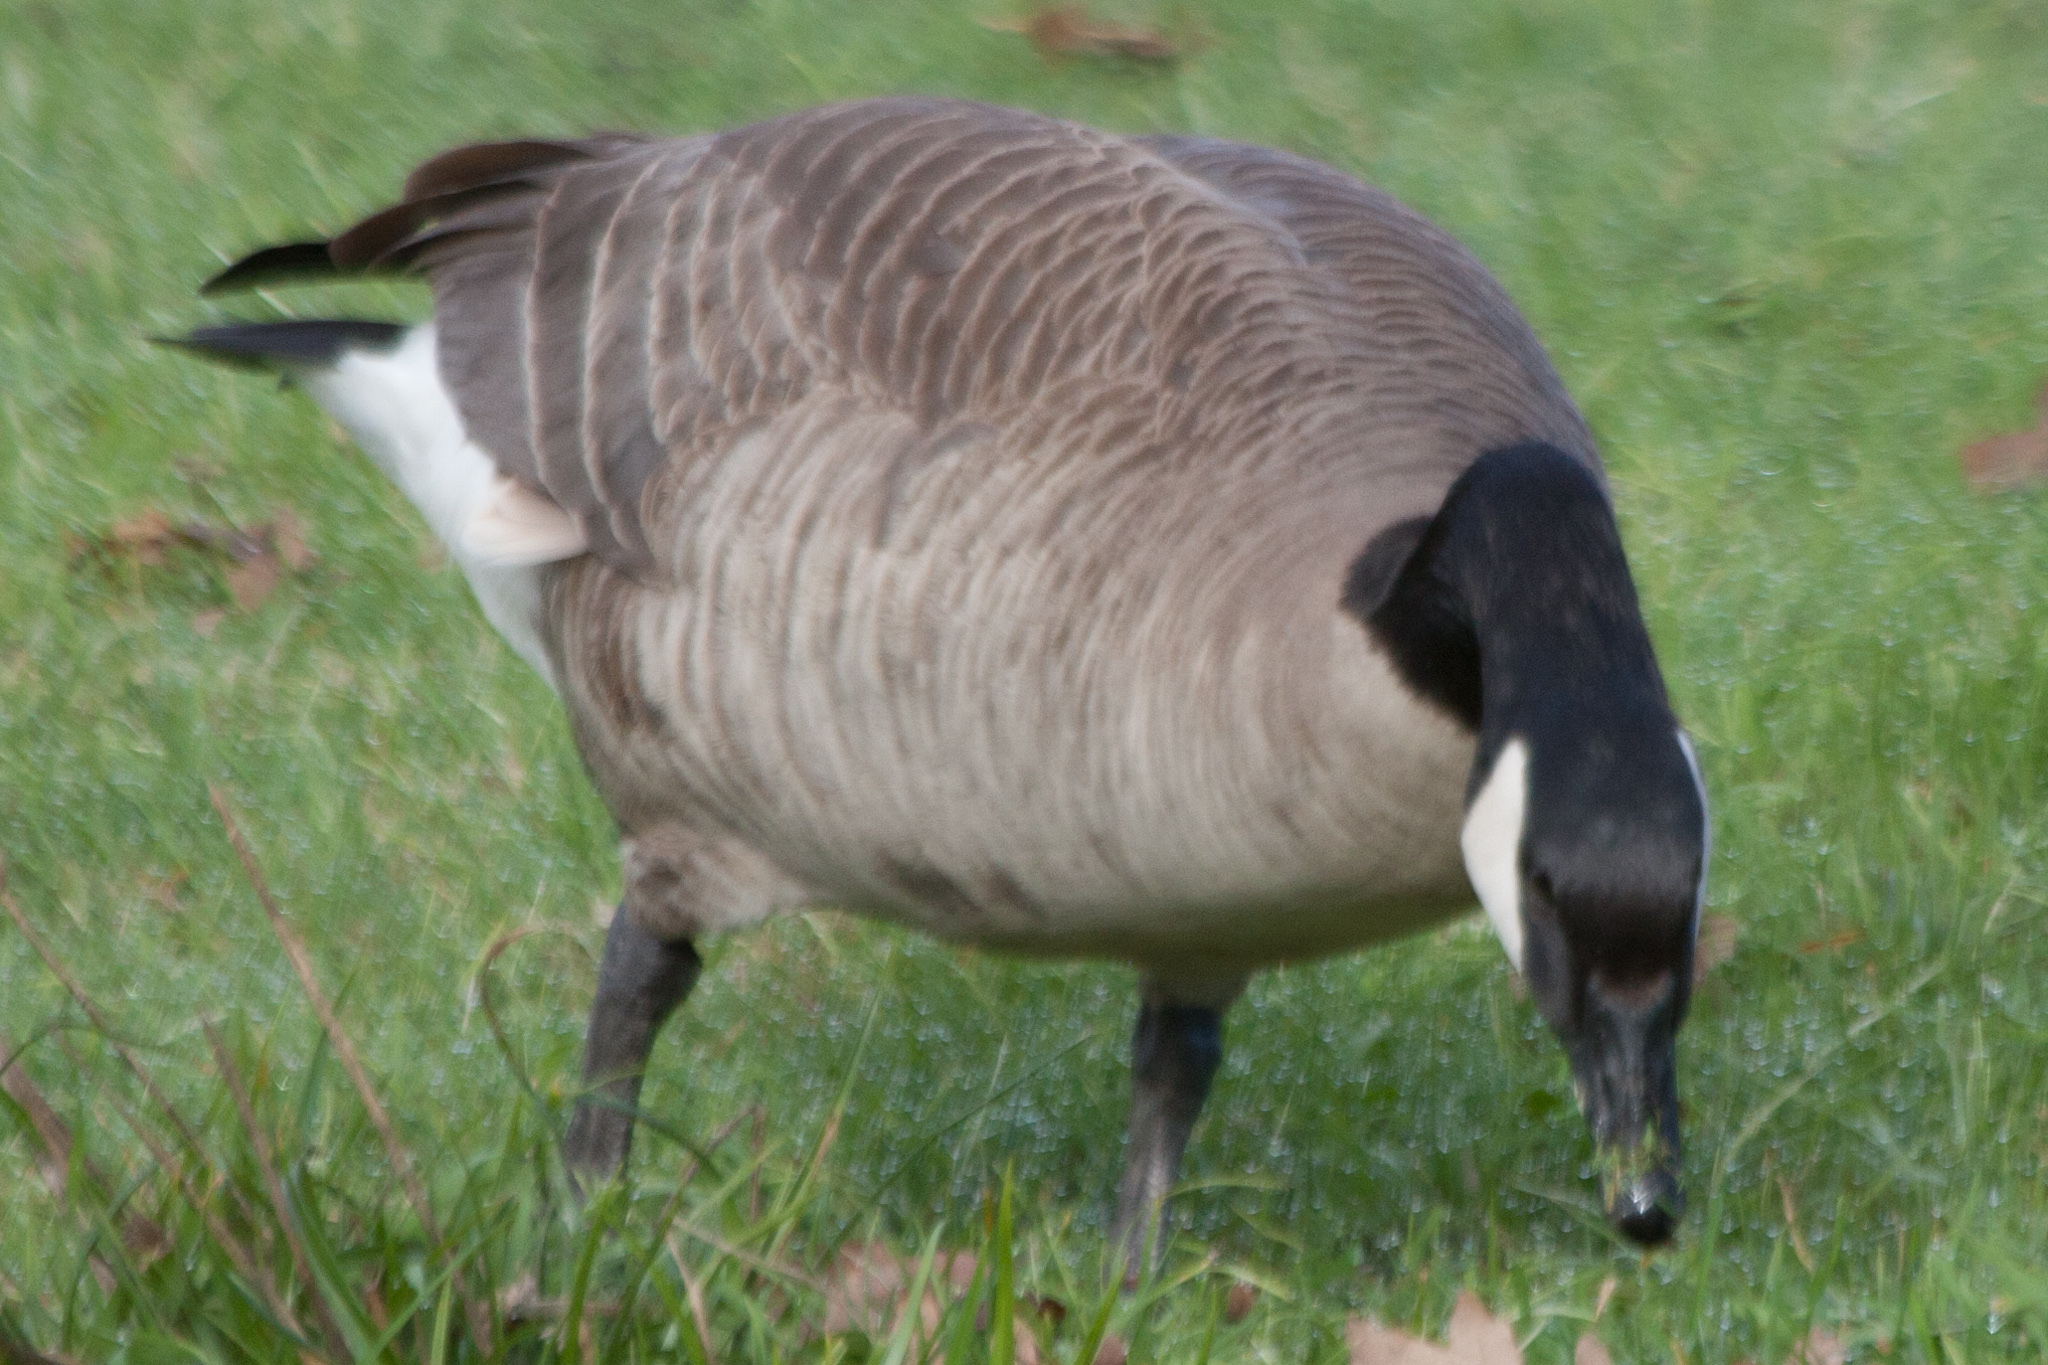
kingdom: Animalia
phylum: Chordata
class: Aves
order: Anseriformes
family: Anatidae
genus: Branta
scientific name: Branta canadensis
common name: Canada goose
